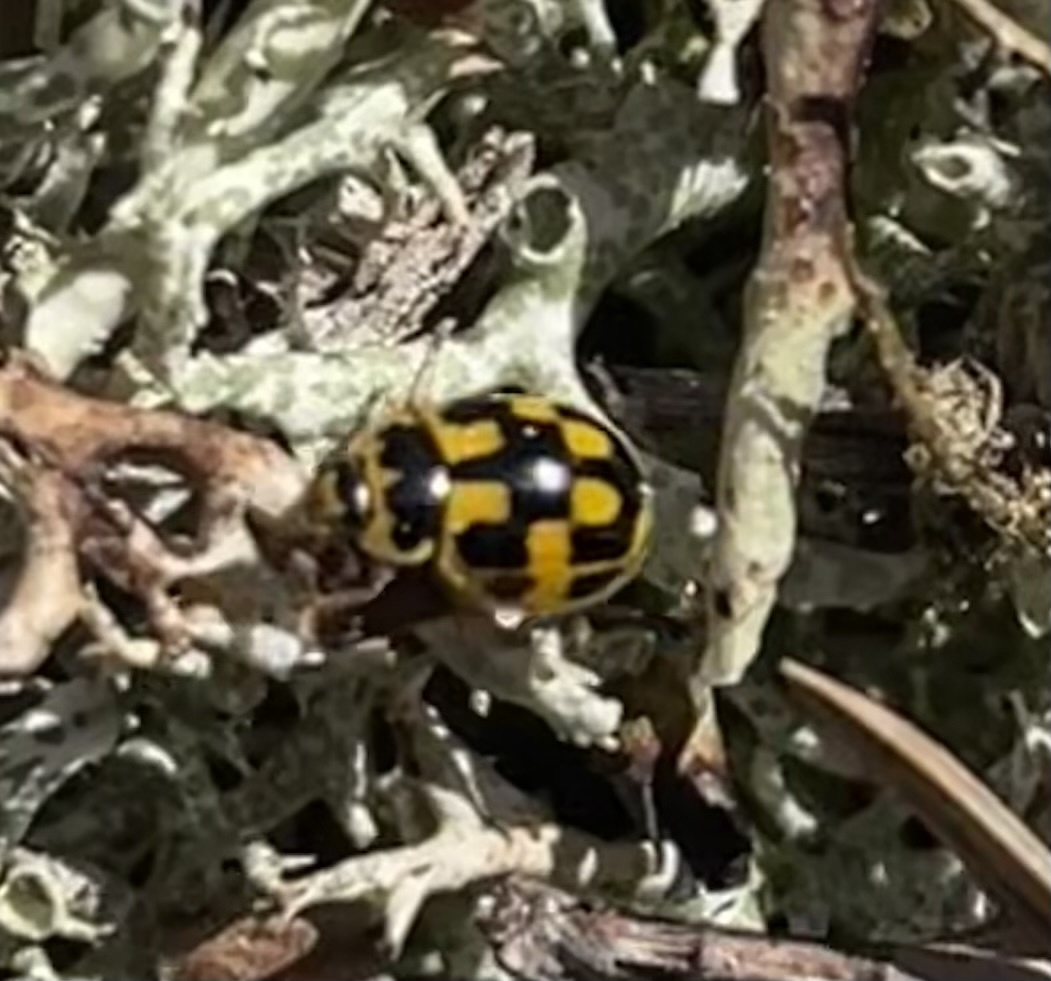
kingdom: Animalia
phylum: Arthropoda
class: Insecta
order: Coleoptera
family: Coccinellidae
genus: Propylaea
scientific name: Propylaea quatuordecimpunctata
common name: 14-spotted ladybird beetle
